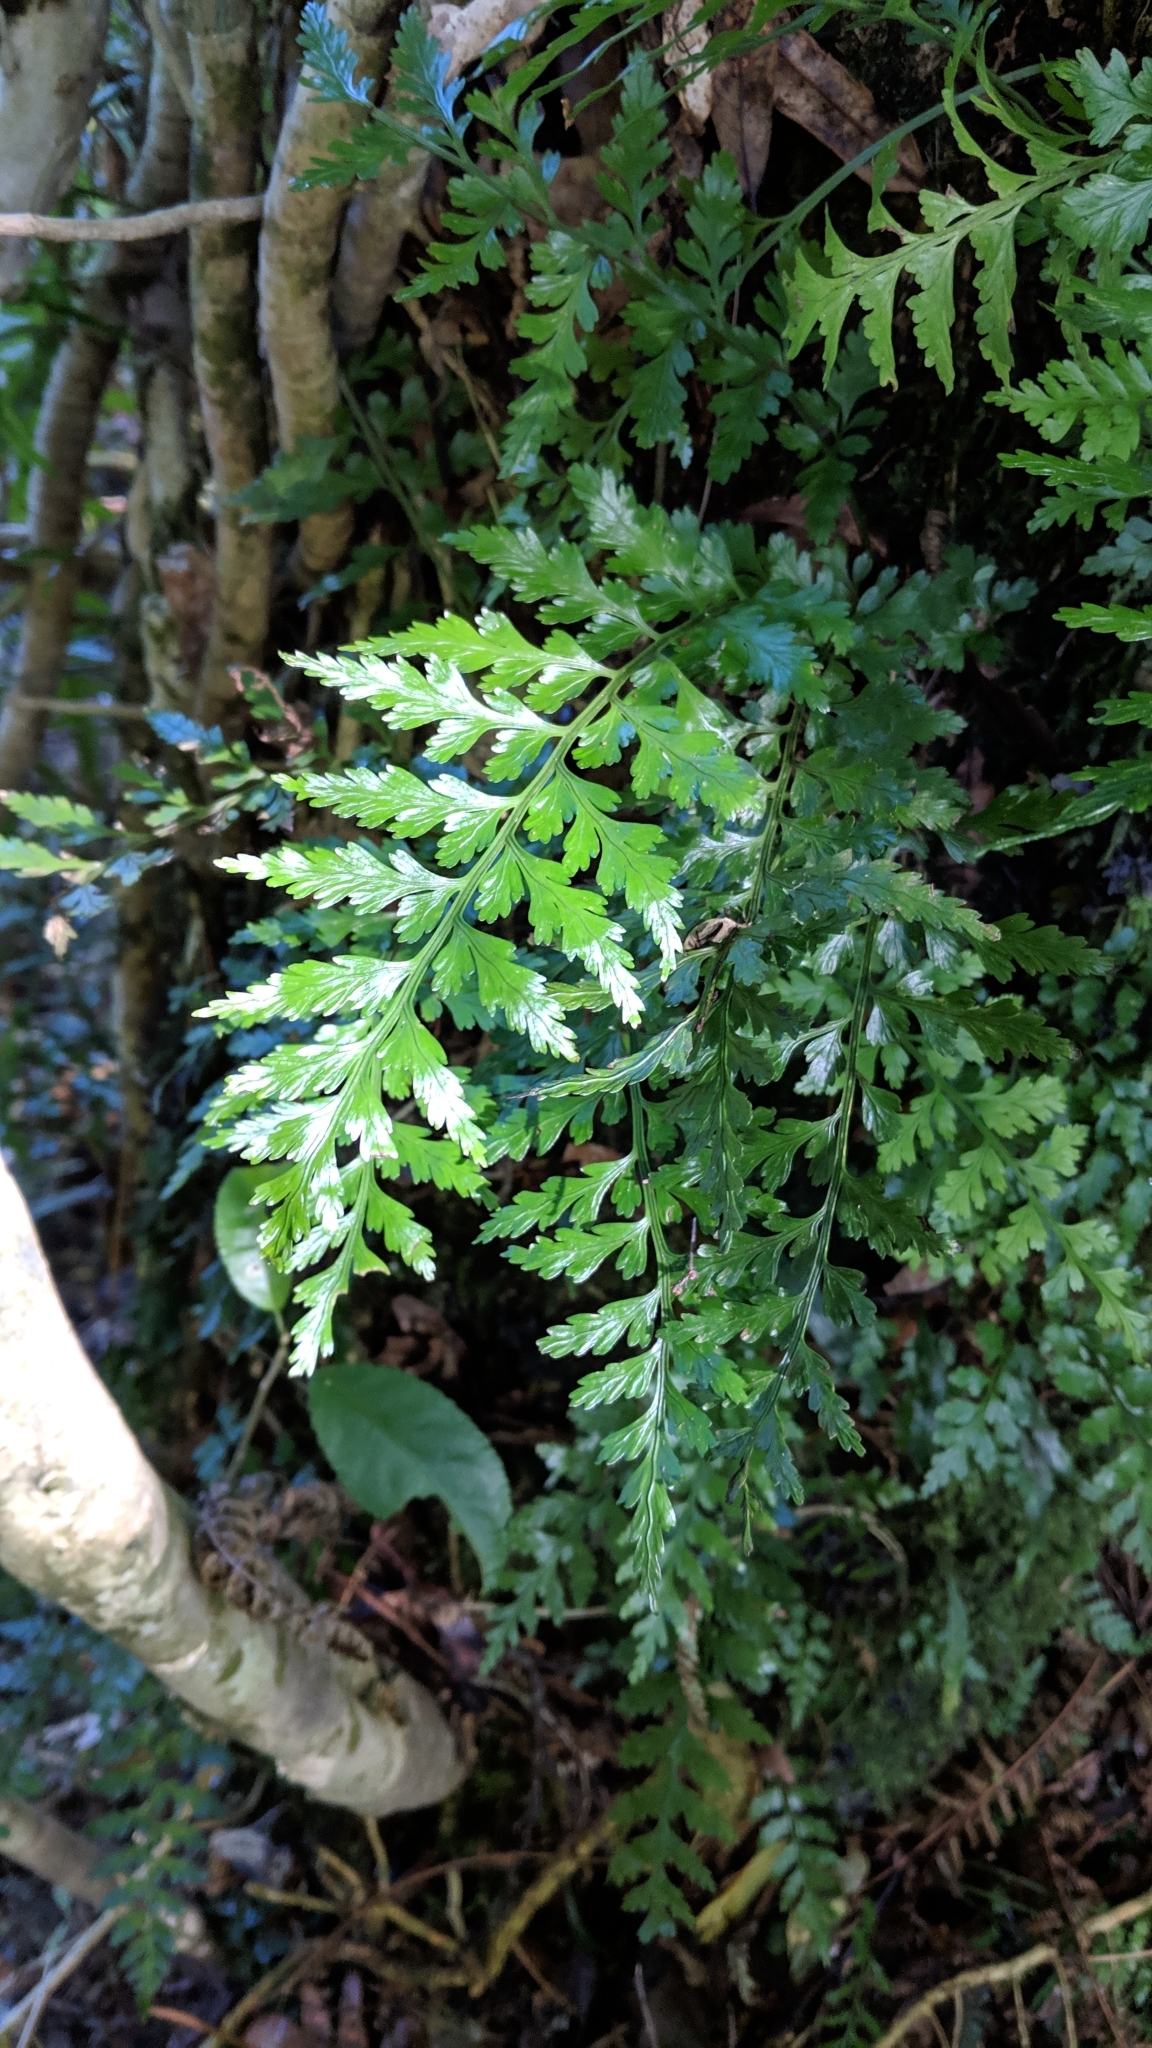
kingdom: Plantae
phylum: Tracheophyta
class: Polypodiopsida
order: Polypodiales
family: Aspleniaceae
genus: Asplenium
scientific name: Asplenium lamprophyllum
